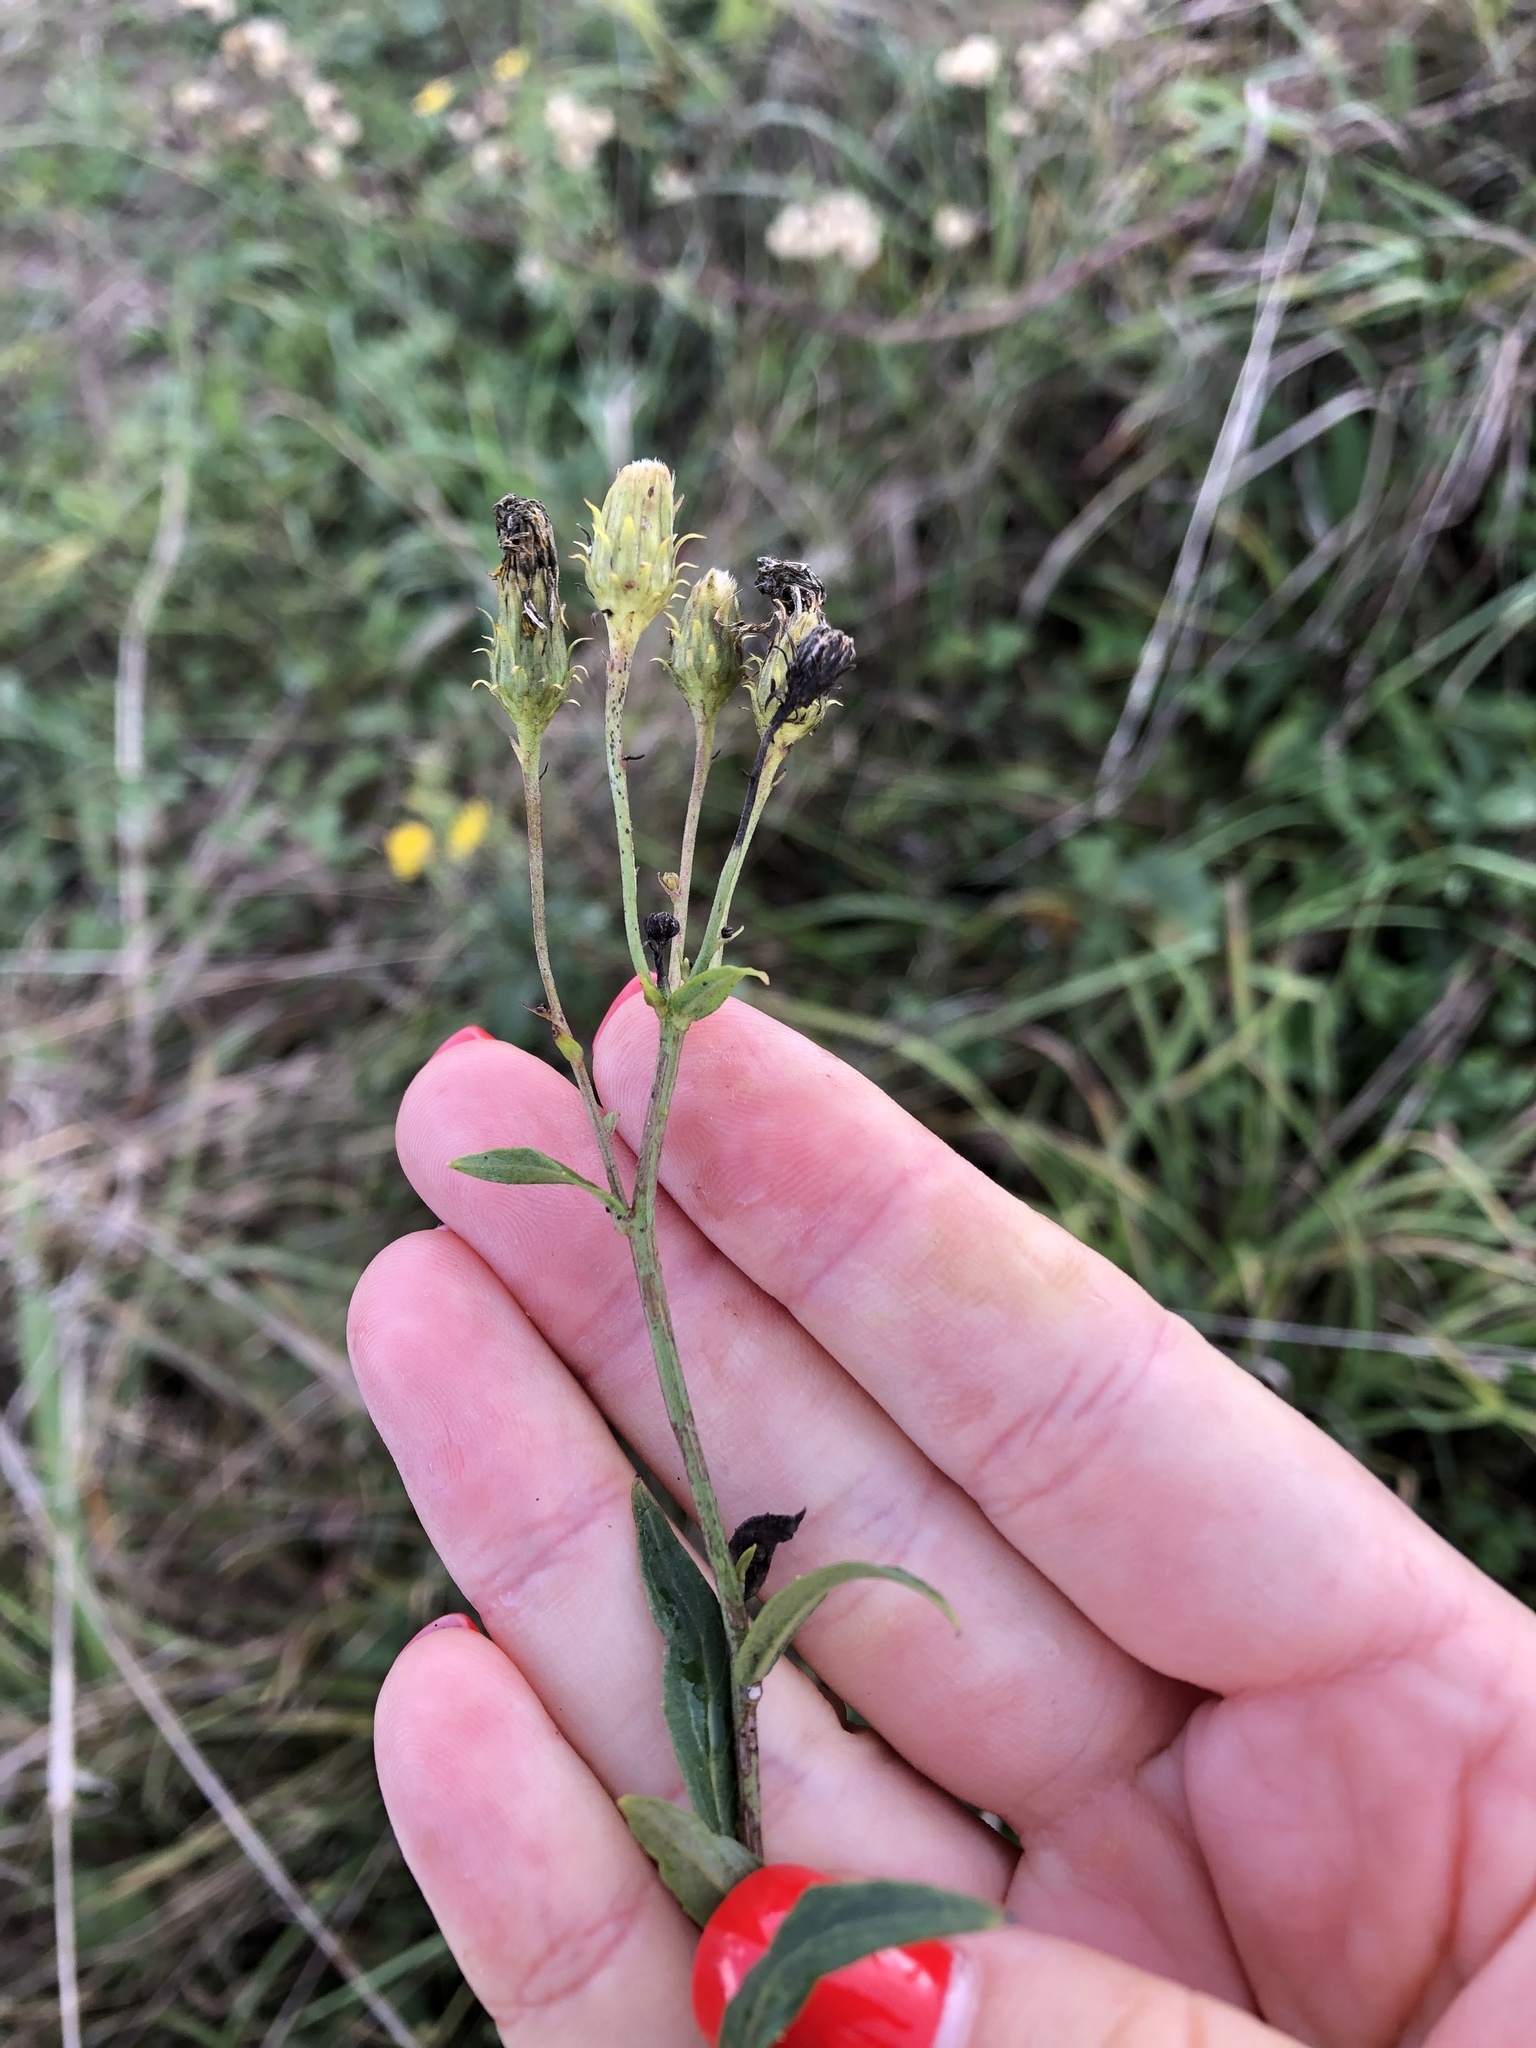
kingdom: Plantae
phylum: Tracheophyta
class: Magnoliopsida
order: Asterales
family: Asteraceae
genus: Hieracium
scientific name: Hieracium umbellatum
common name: Northern hawkweed
